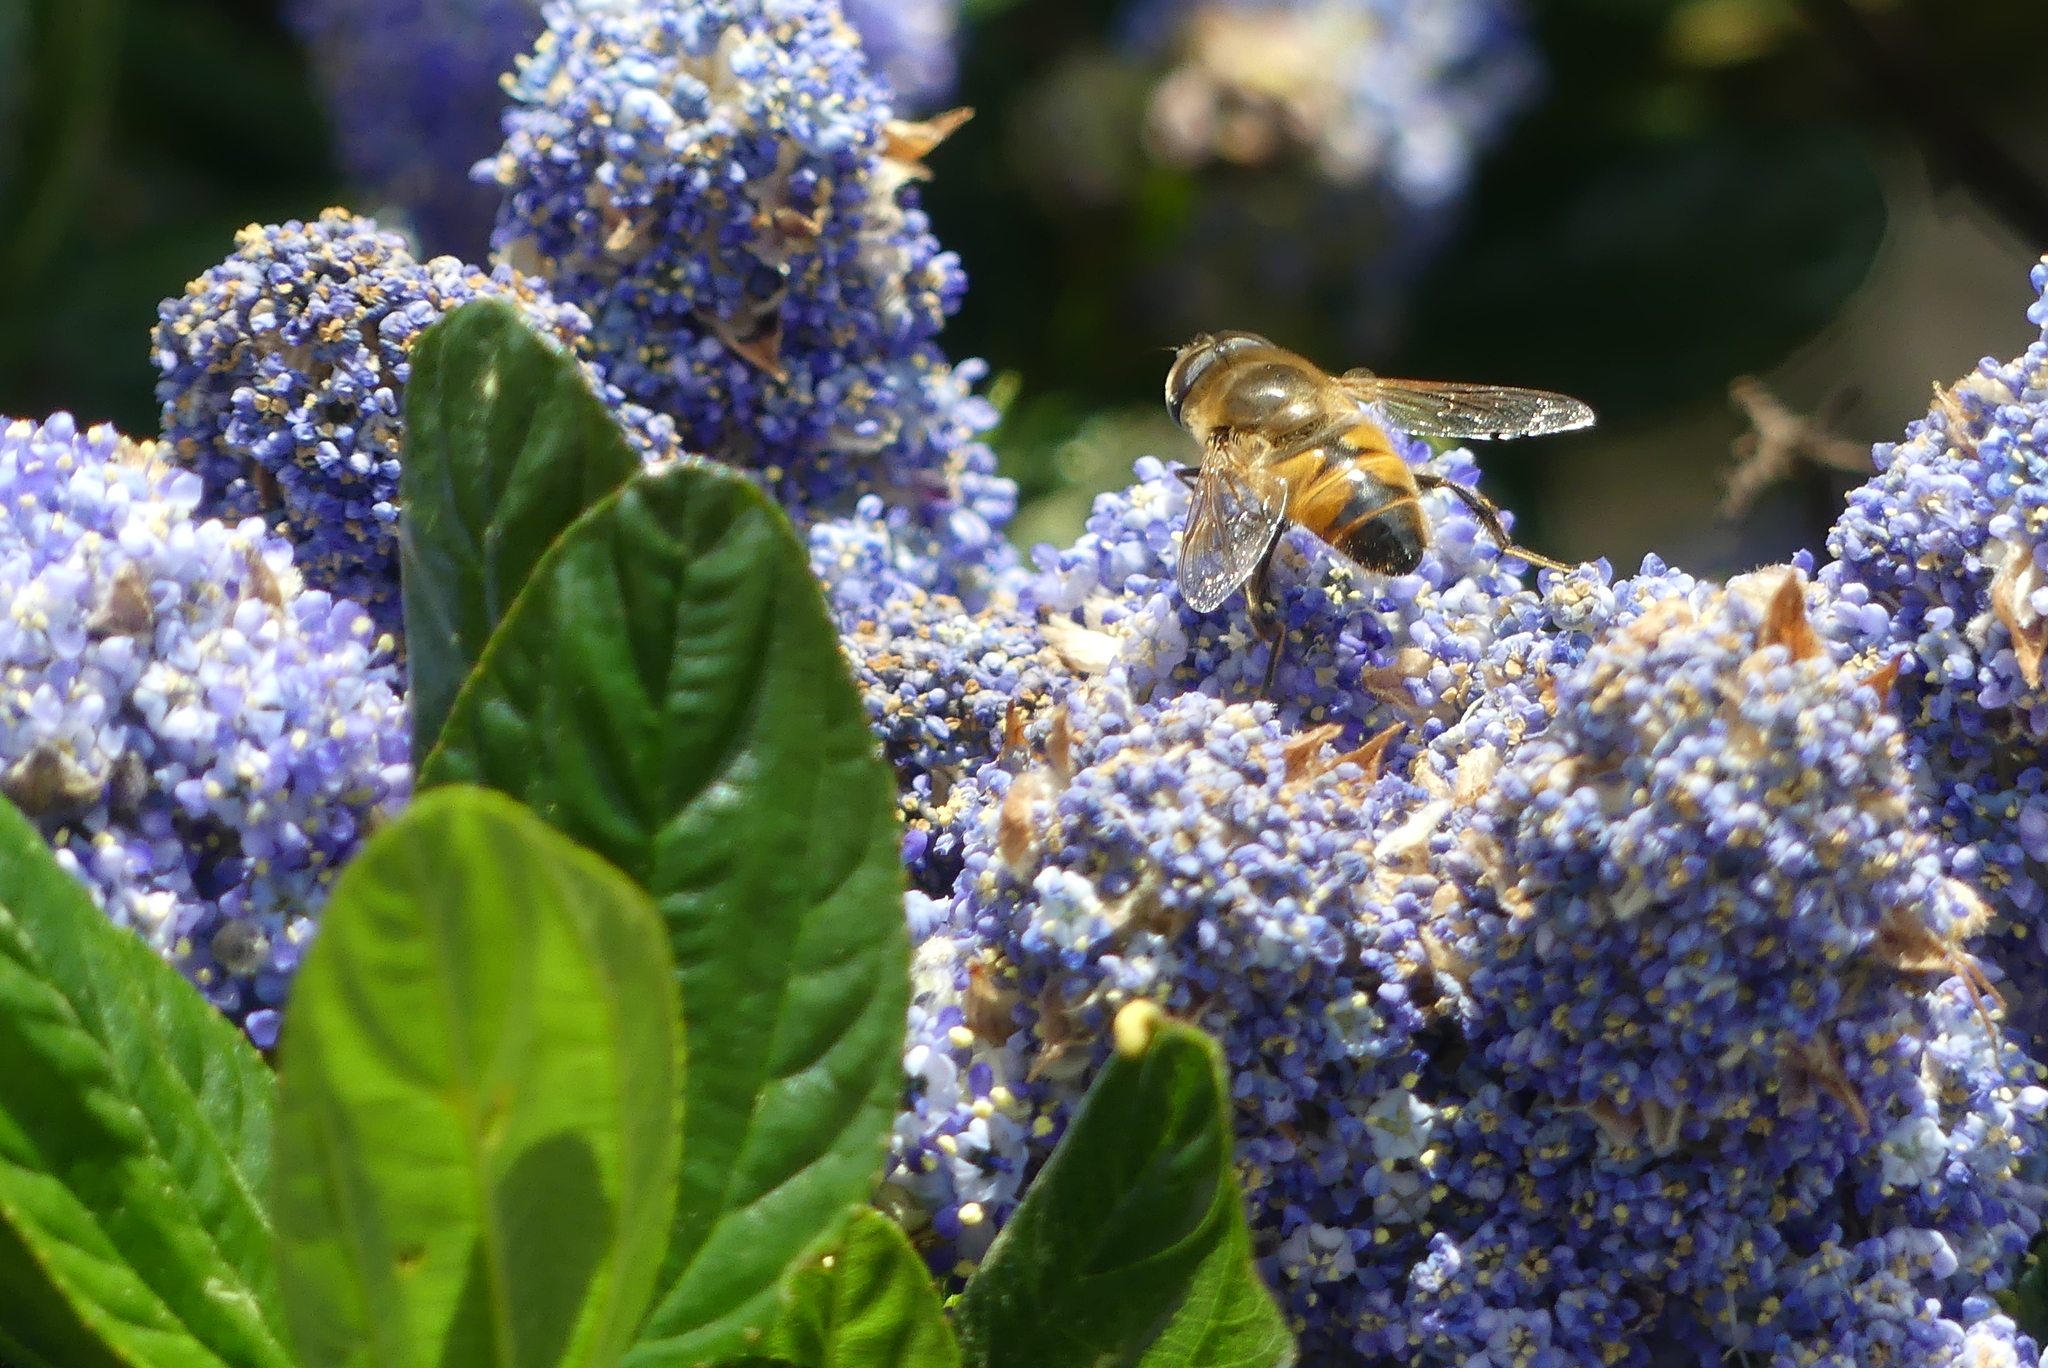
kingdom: Animalia
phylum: Arthropoda
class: Insecta
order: Diptera
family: Syrphidae
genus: Eristalis
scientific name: Eristalis tenax
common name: Drone fly
